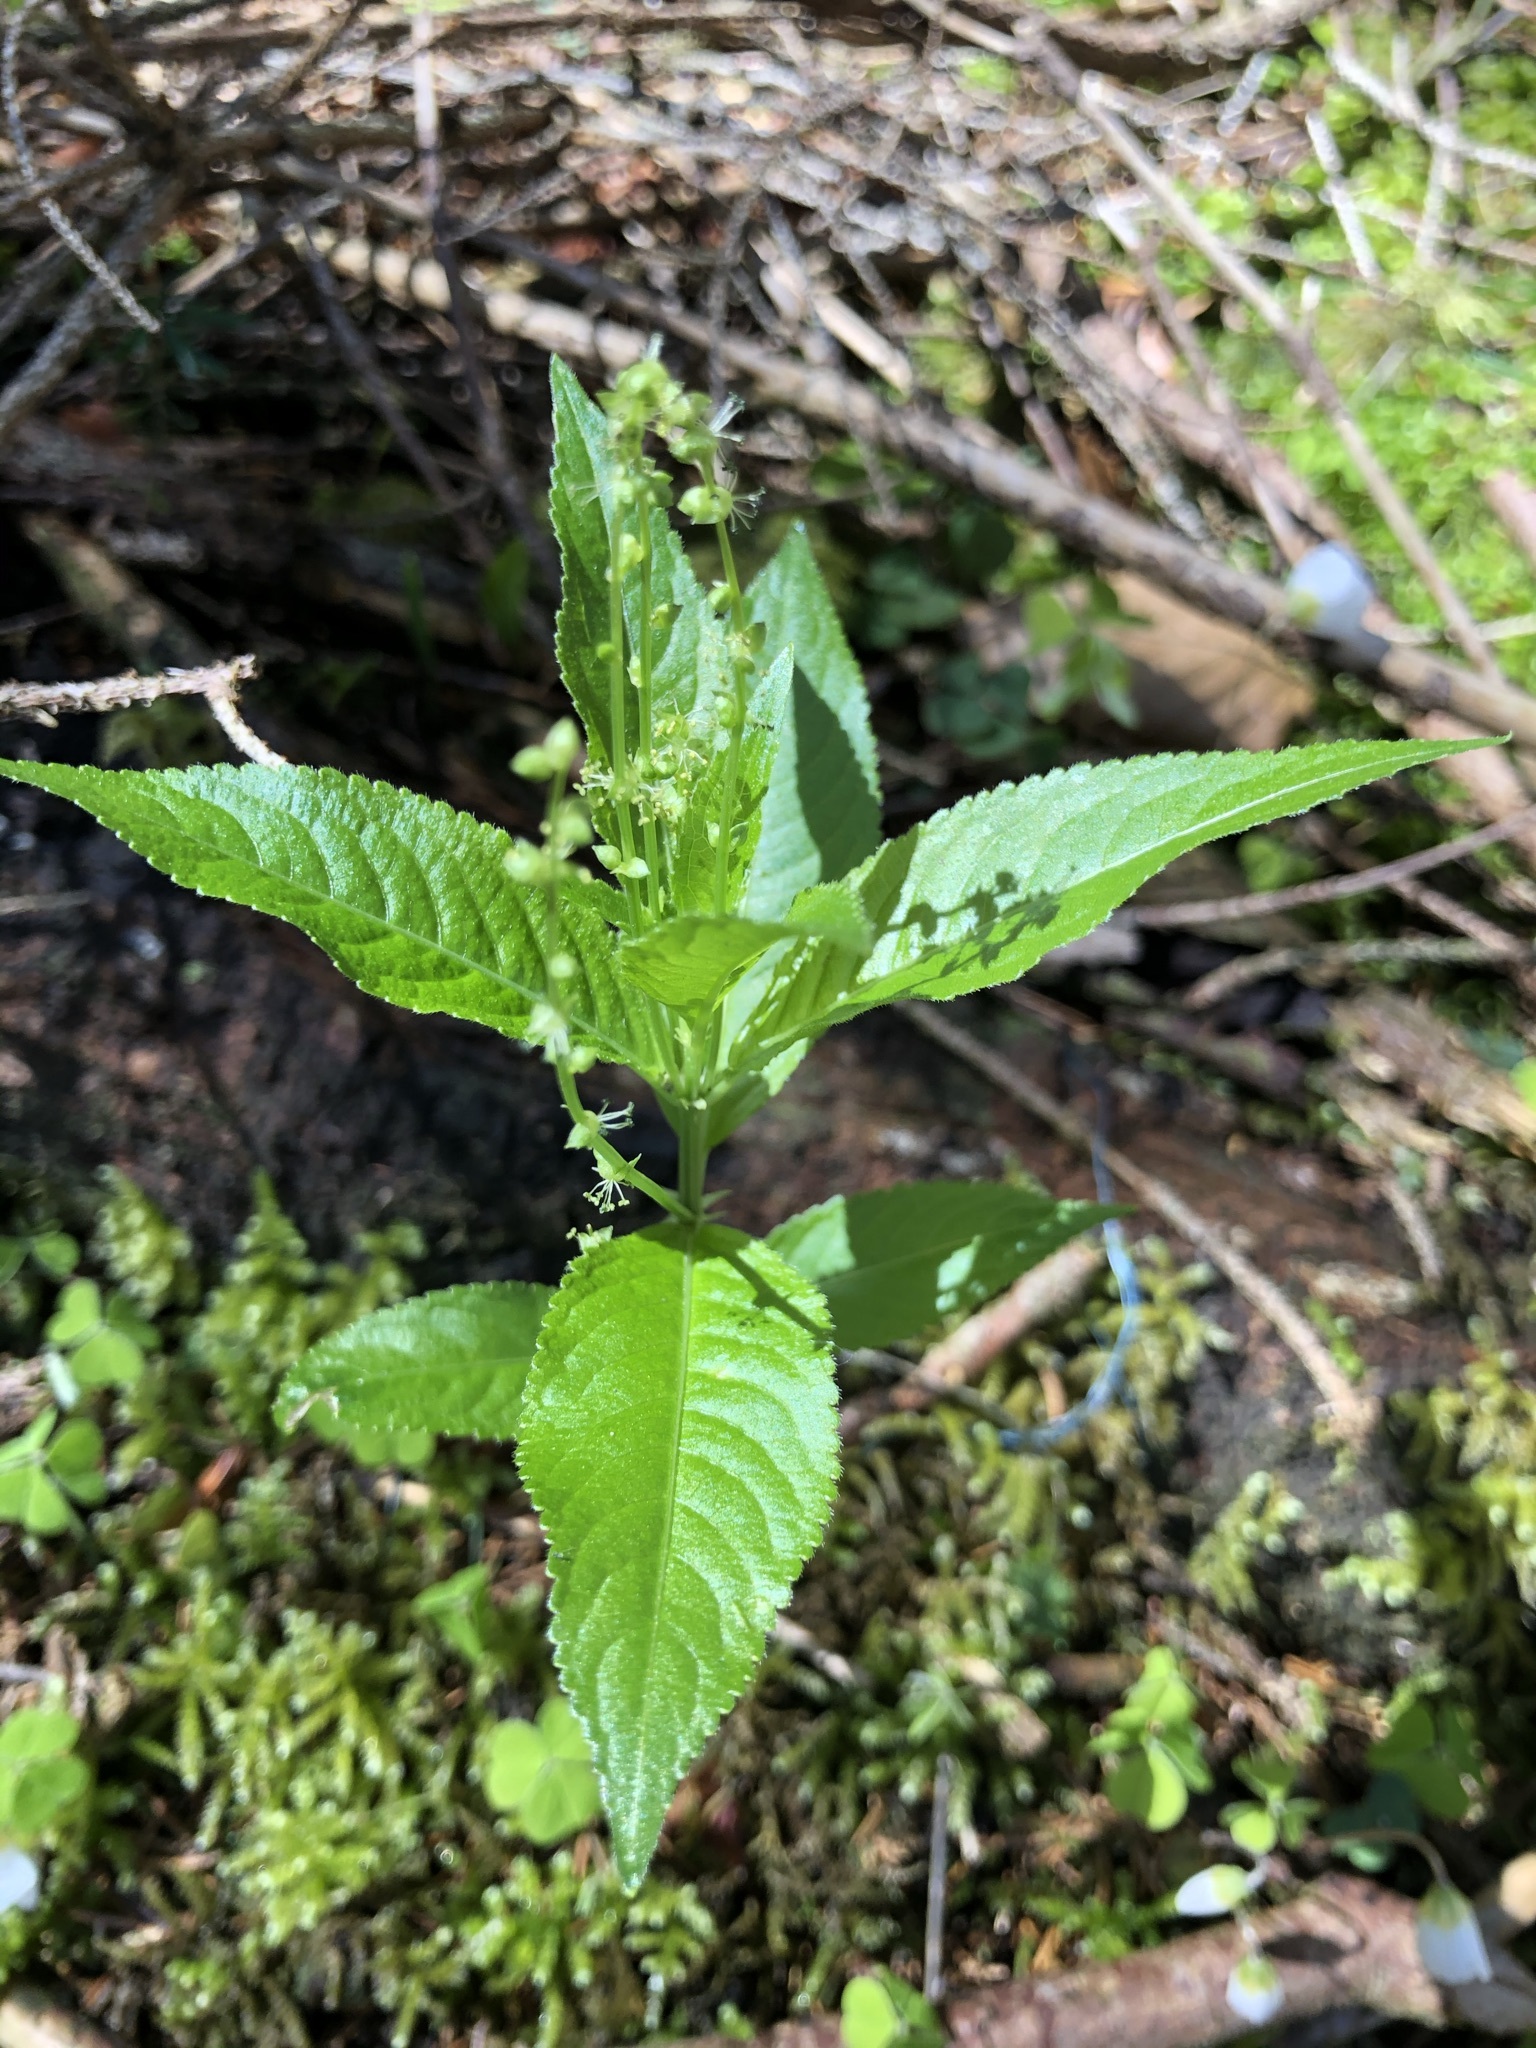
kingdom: Plantae
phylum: Tracheophyta
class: Magnoliopsida
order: Malpighiales
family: Euphorbiaceae
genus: Mercurialis
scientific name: Mercurialis perennis
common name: Dog mercury
